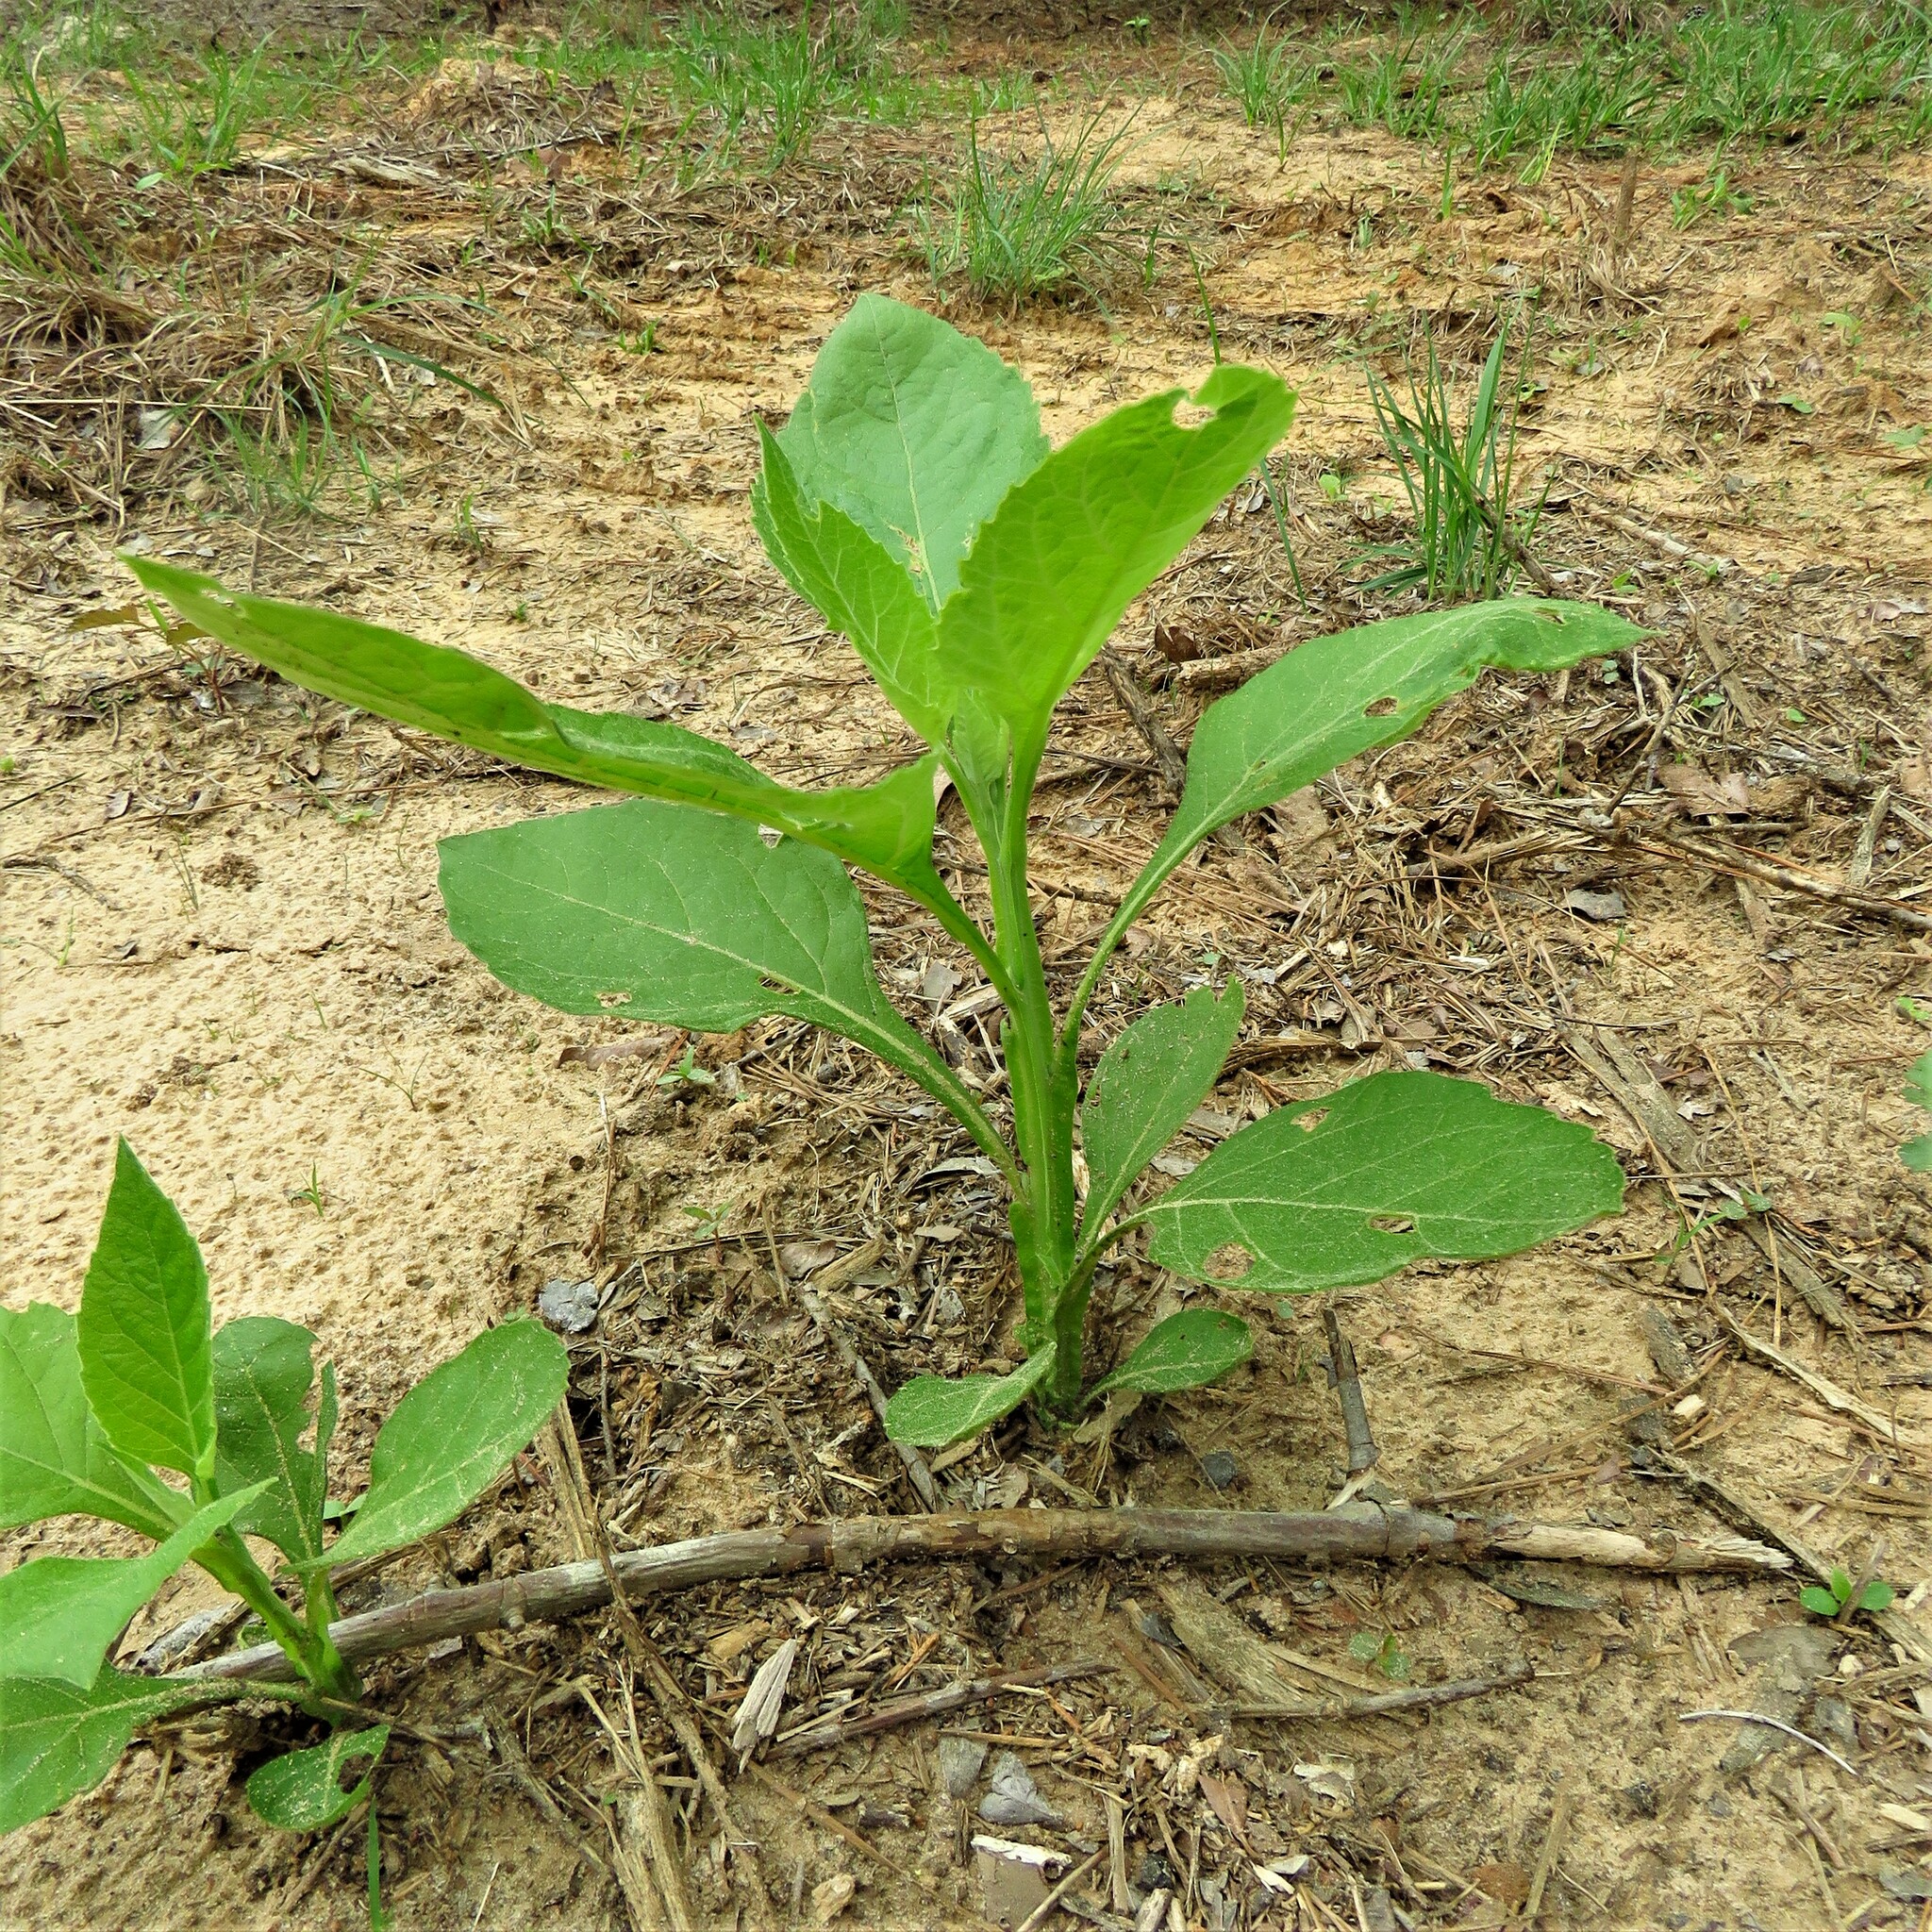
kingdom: Plantae
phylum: Tracheophyta
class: Magnoliopsida
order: Asterales
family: Asteraceae
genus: Verbesina
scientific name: Verbesina virginica
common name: Frostweed
